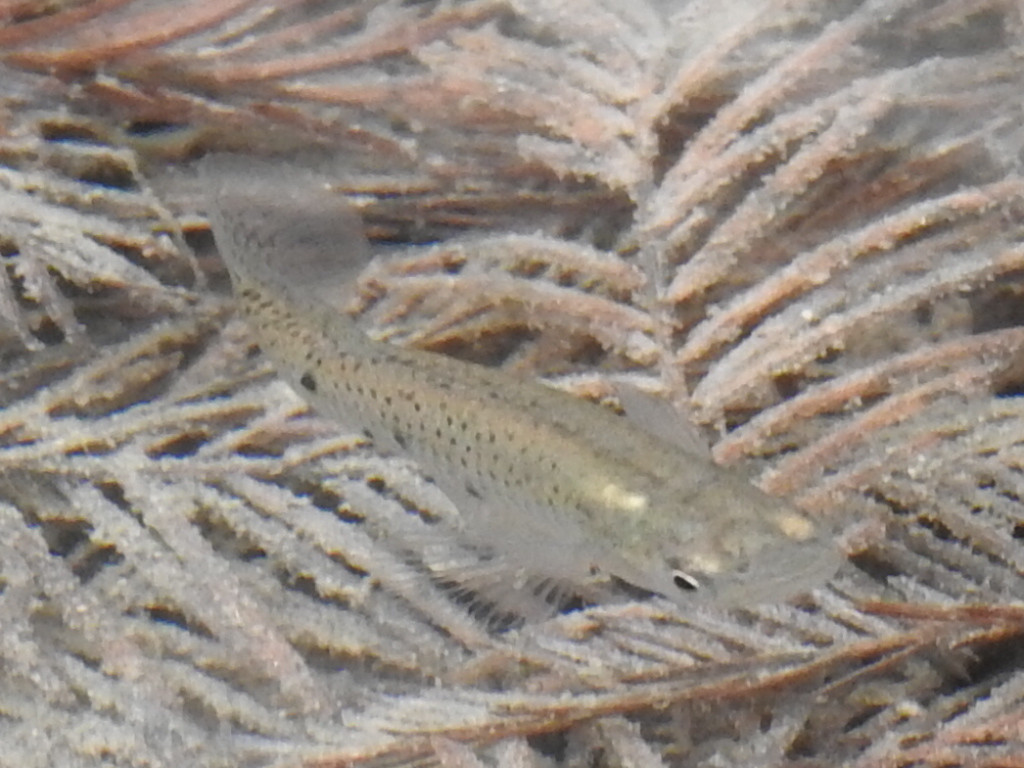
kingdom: Animalia
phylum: Chordata
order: Cyprinodontiformes
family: Poeciliidae
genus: Gambusia
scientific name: Gambusia affinis
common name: Mosquitofish
